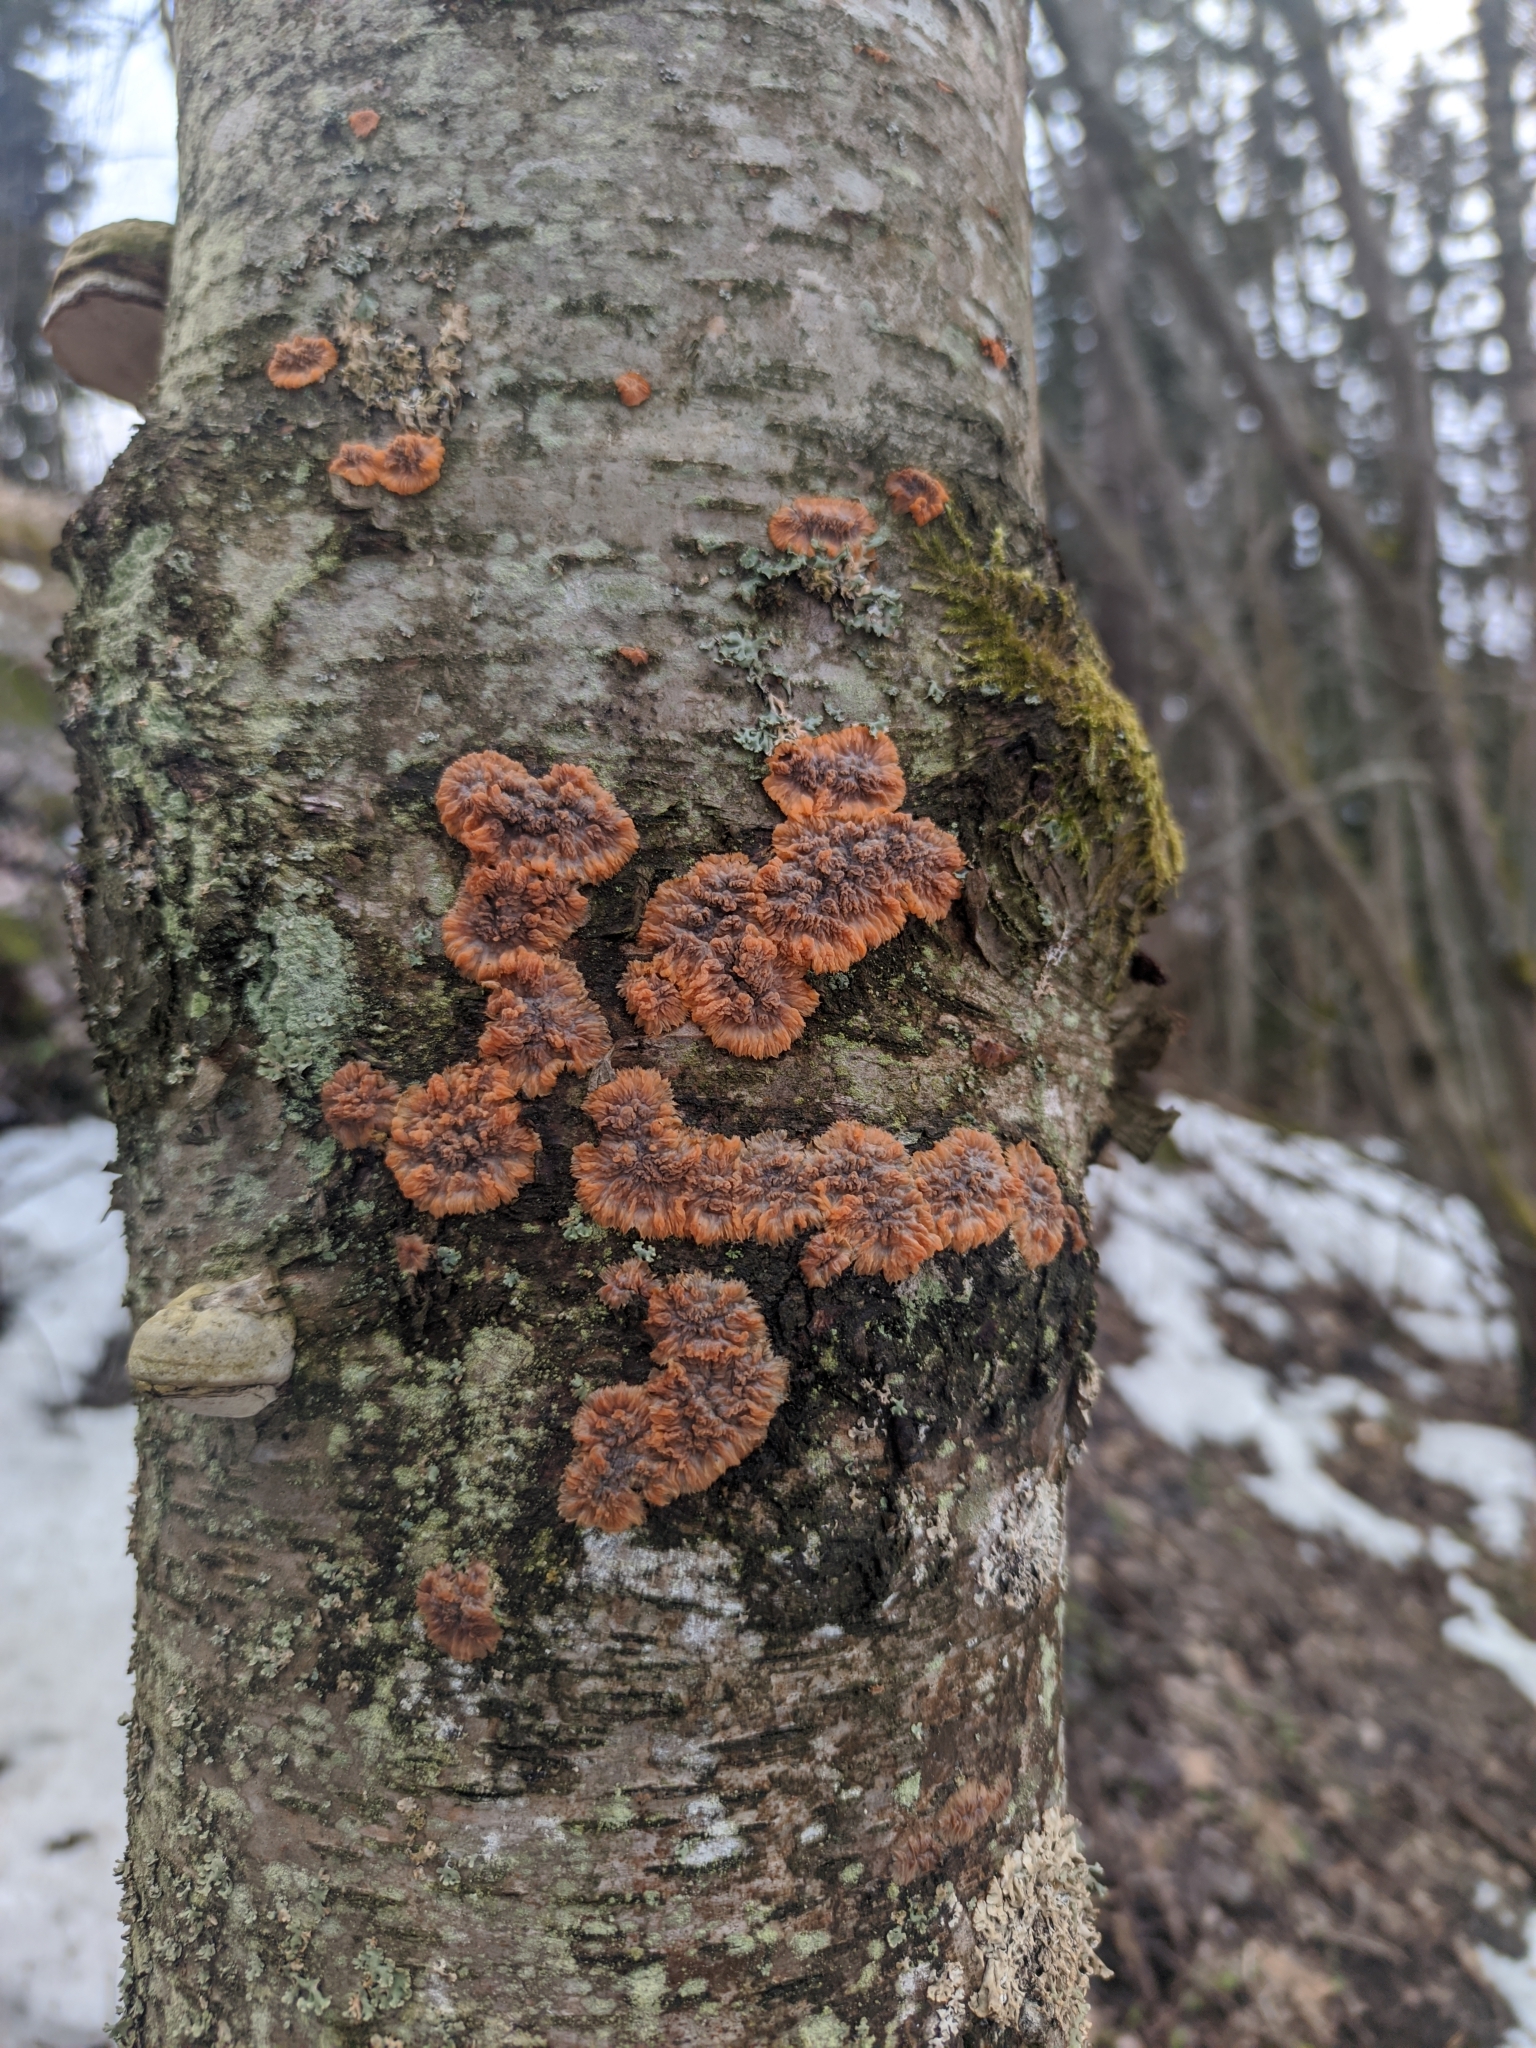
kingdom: Fungi
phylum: Basidiomycota
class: Agaricomycetes
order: Polyporales
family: Meruliaceae
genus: Phlebia
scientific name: Phlebia radiata
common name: Wrinkled crust
